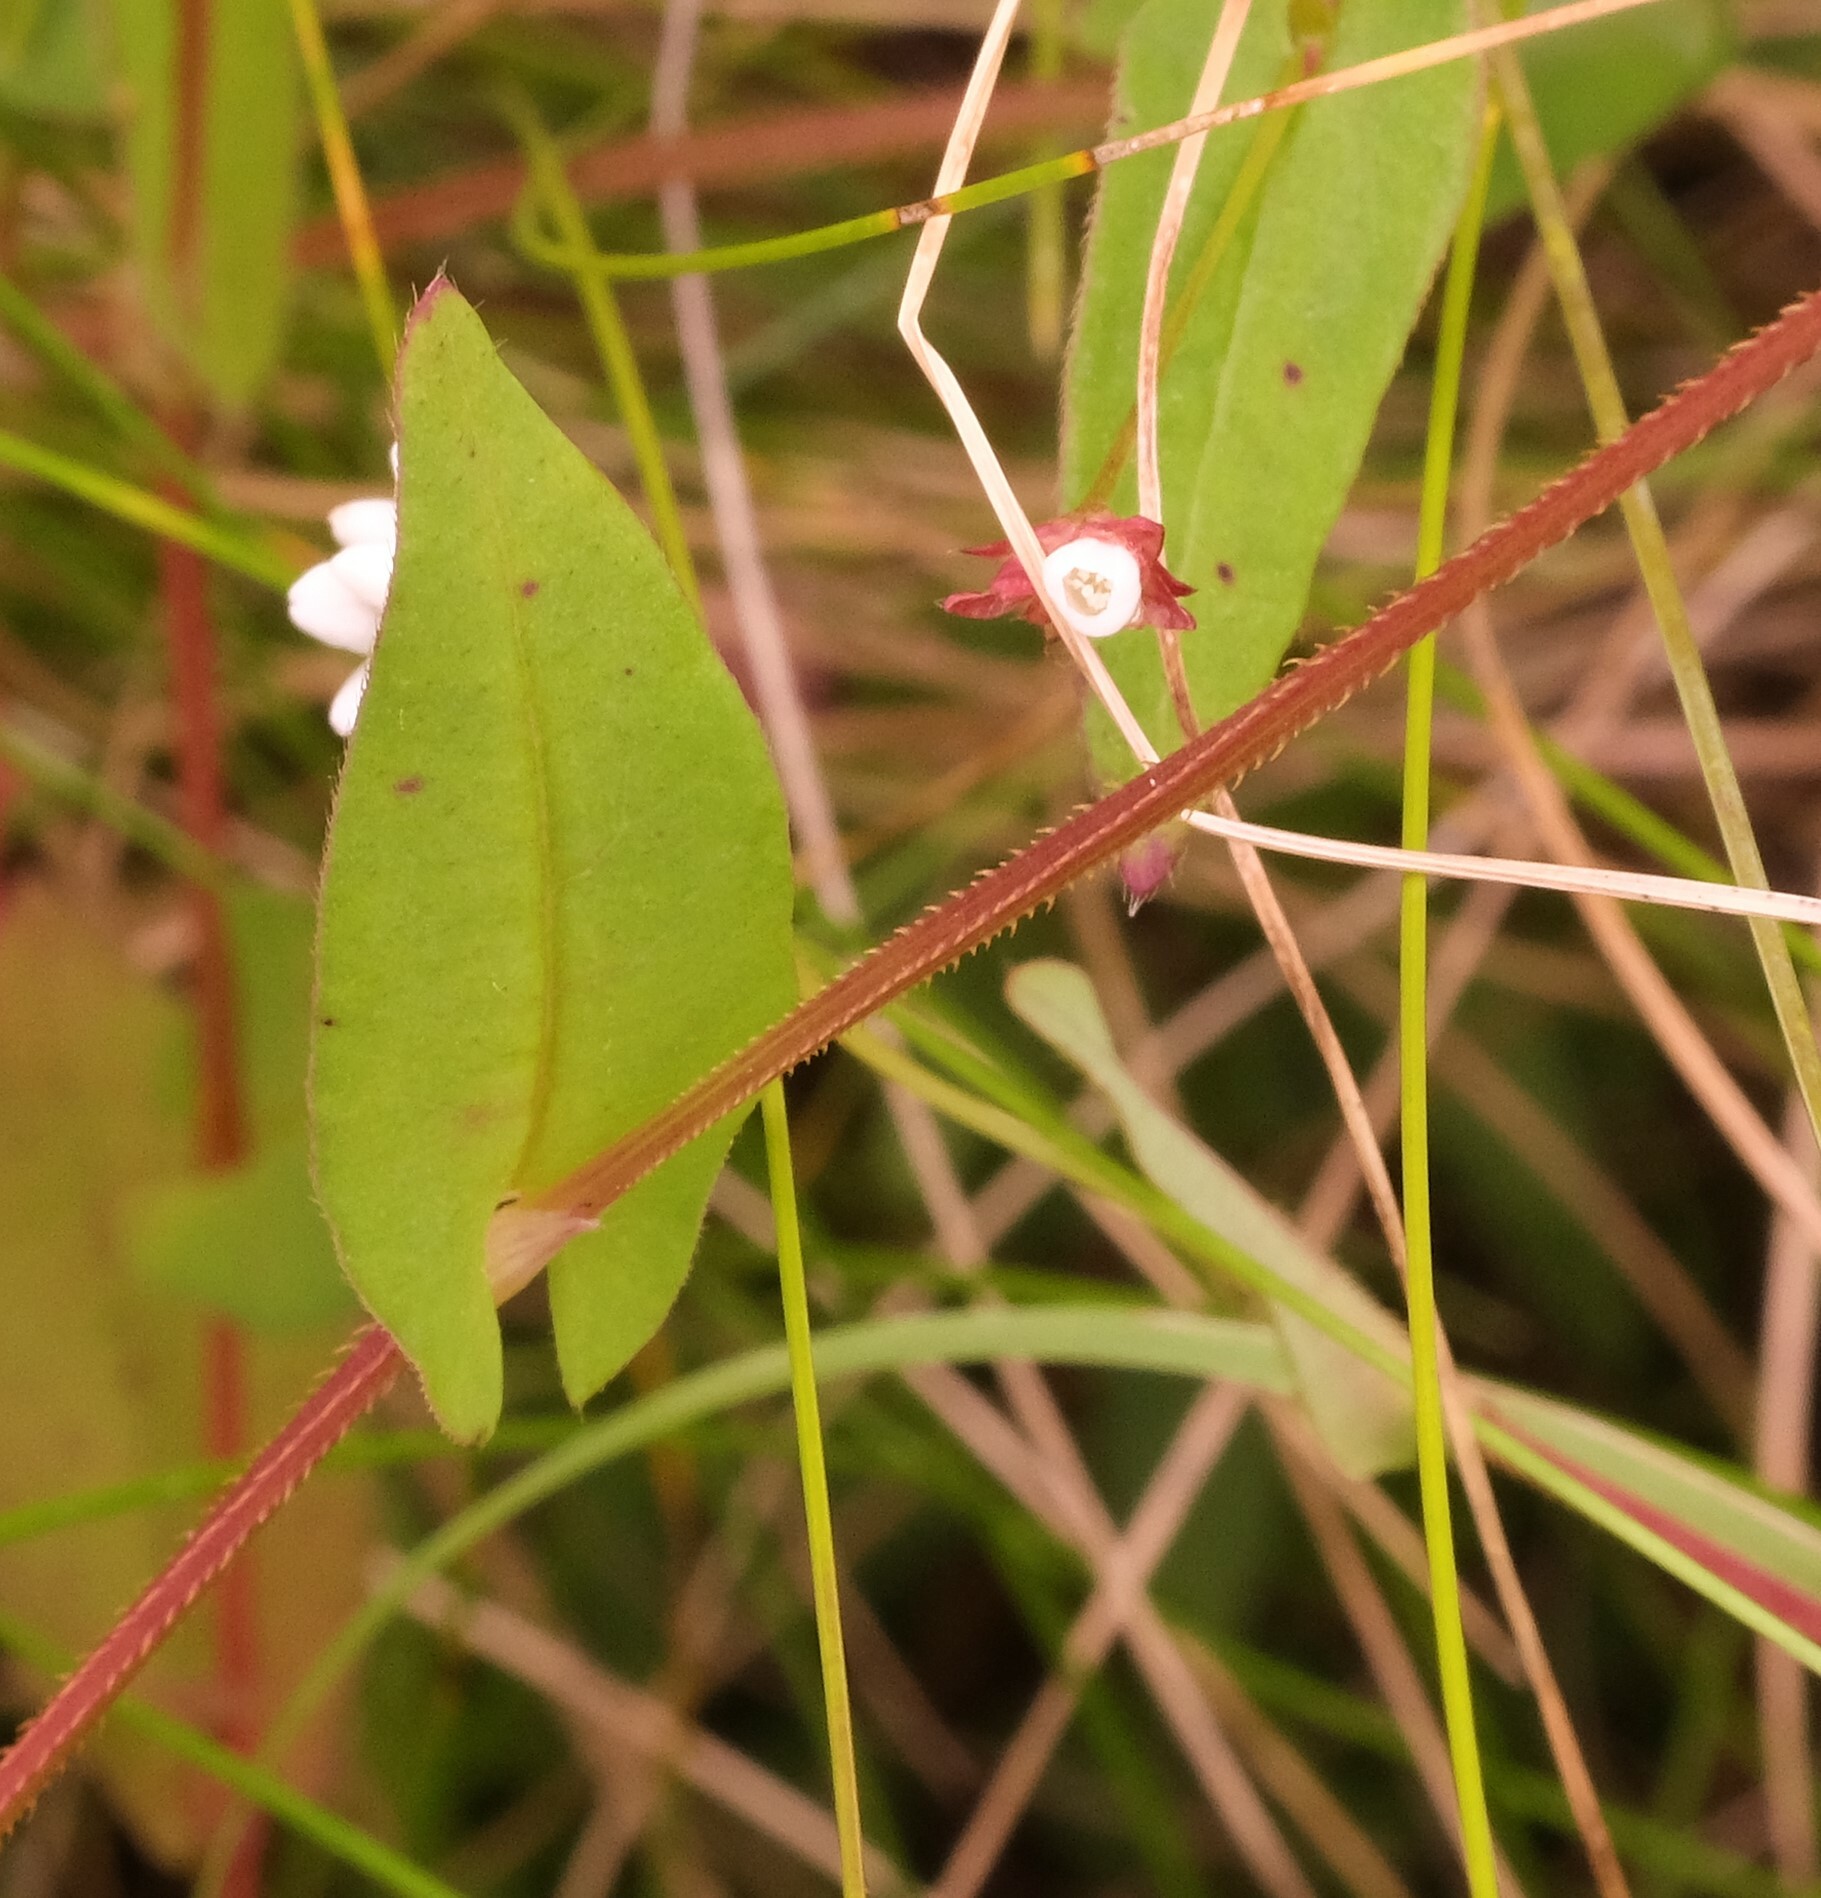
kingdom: Plantae
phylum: Tracheophyta
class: Magnoliopsida
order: Caryophyllales
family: Polygonaceae
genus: Persicaria
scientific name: Persicaria sagittata
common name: American tearthumb
